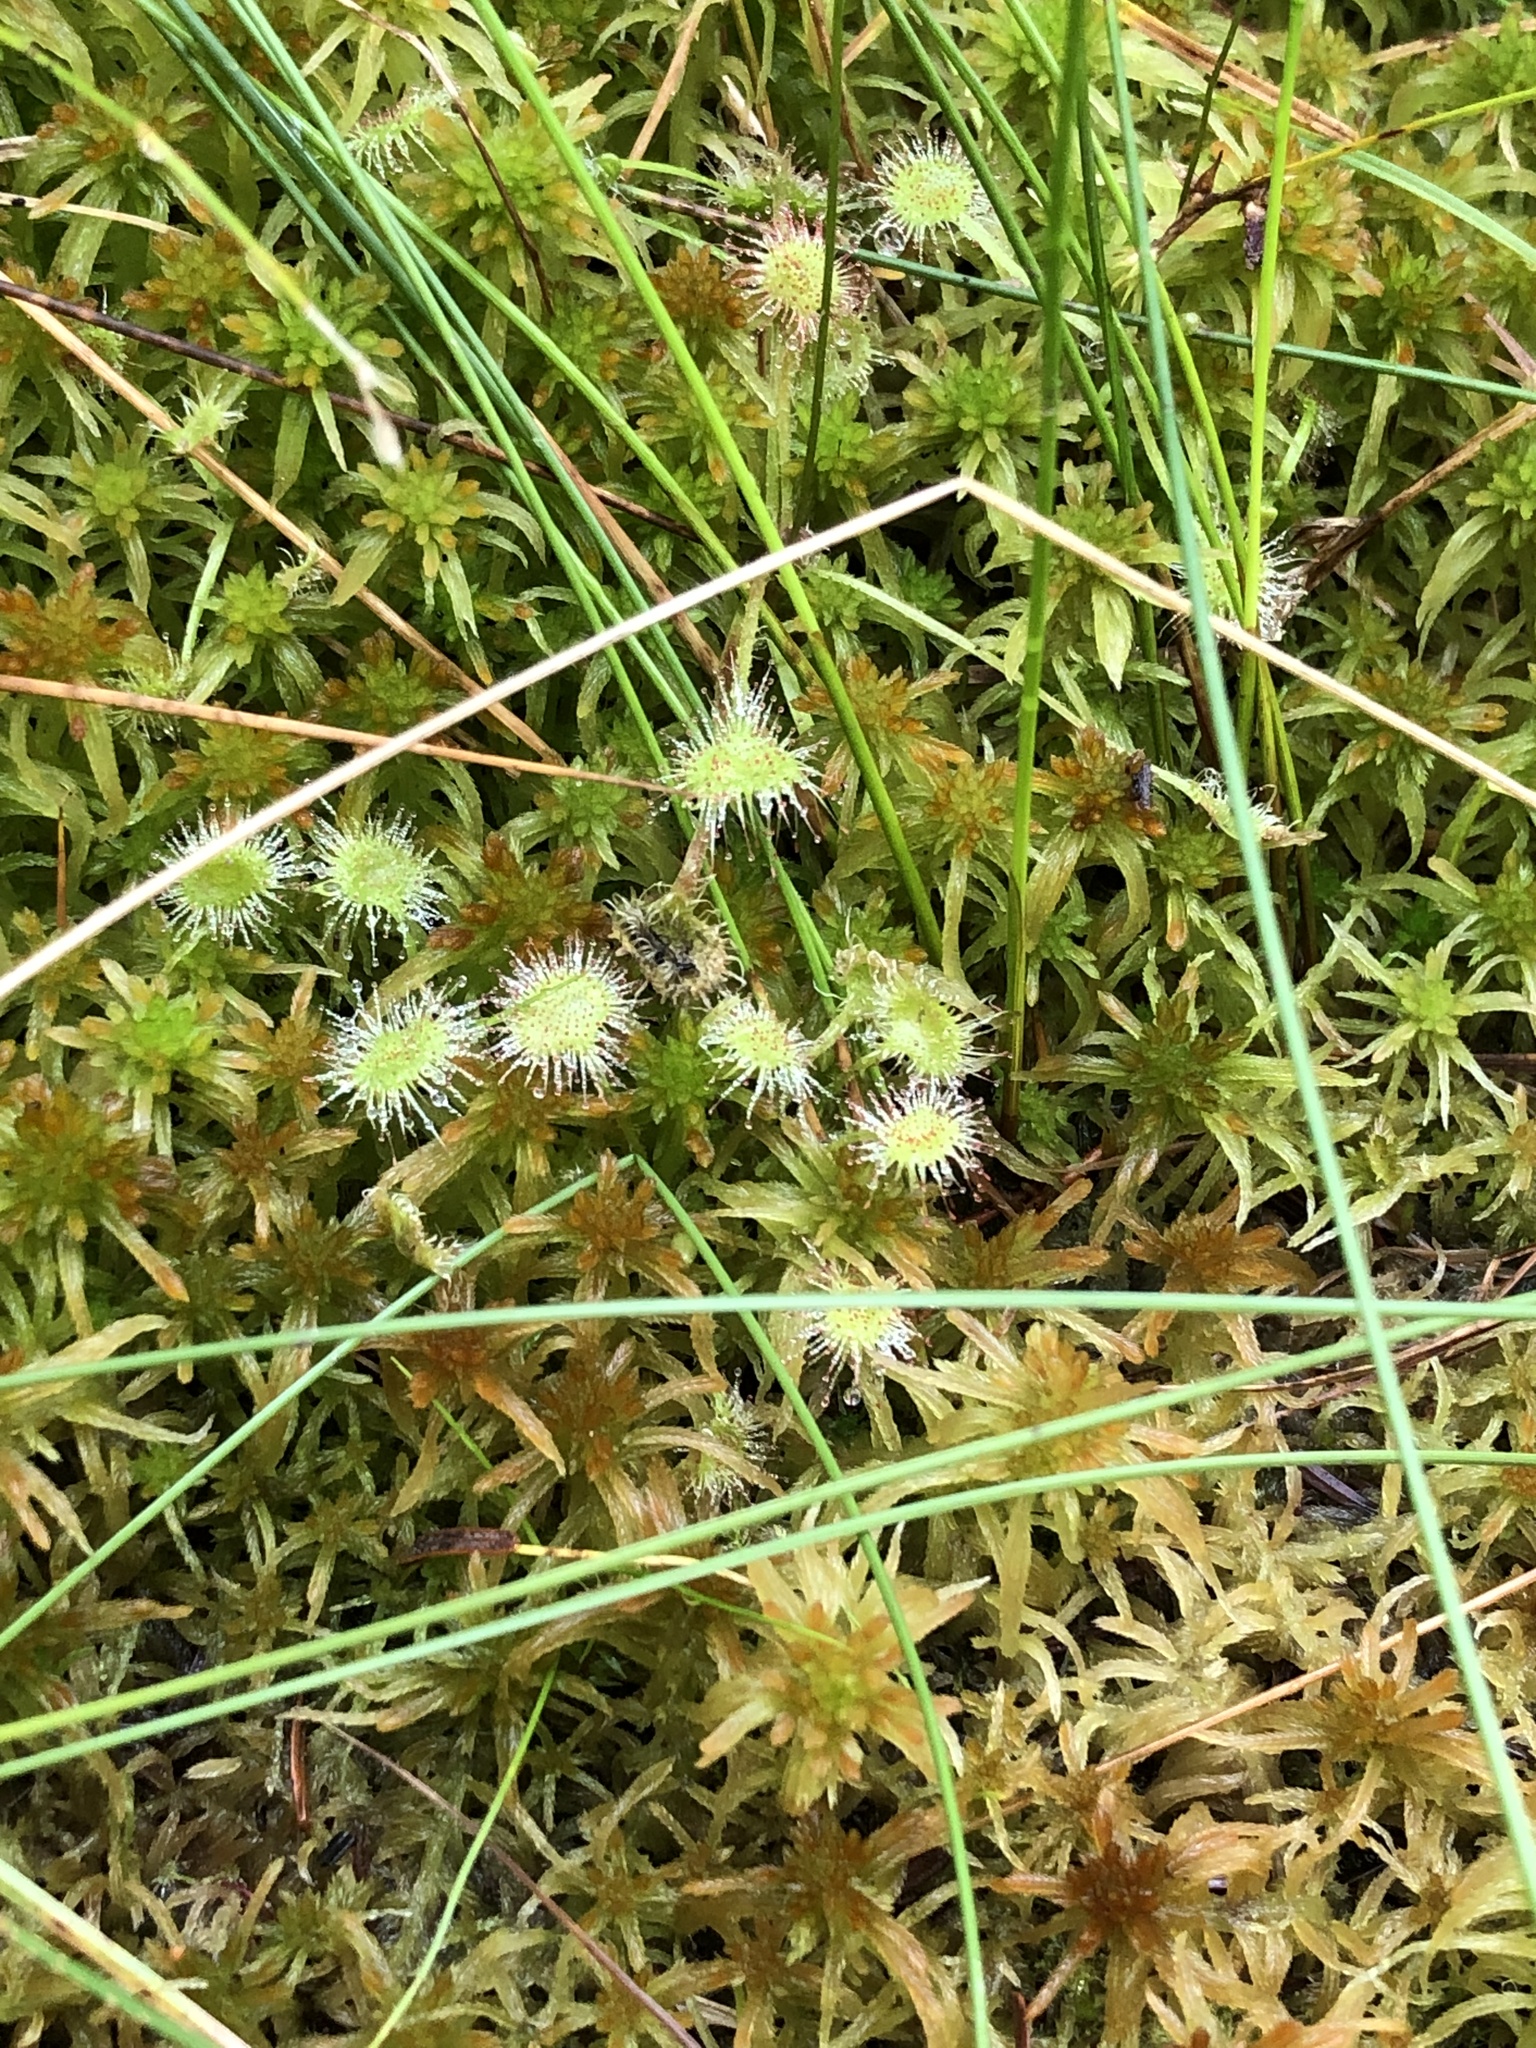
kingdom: Plantae
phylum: Tracheophyta
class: Magnoliopsida
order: Caryophyllales
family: Droseraceae
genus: Drosera
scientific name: Drosera rotundifolia
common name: Round-leaved sundew
